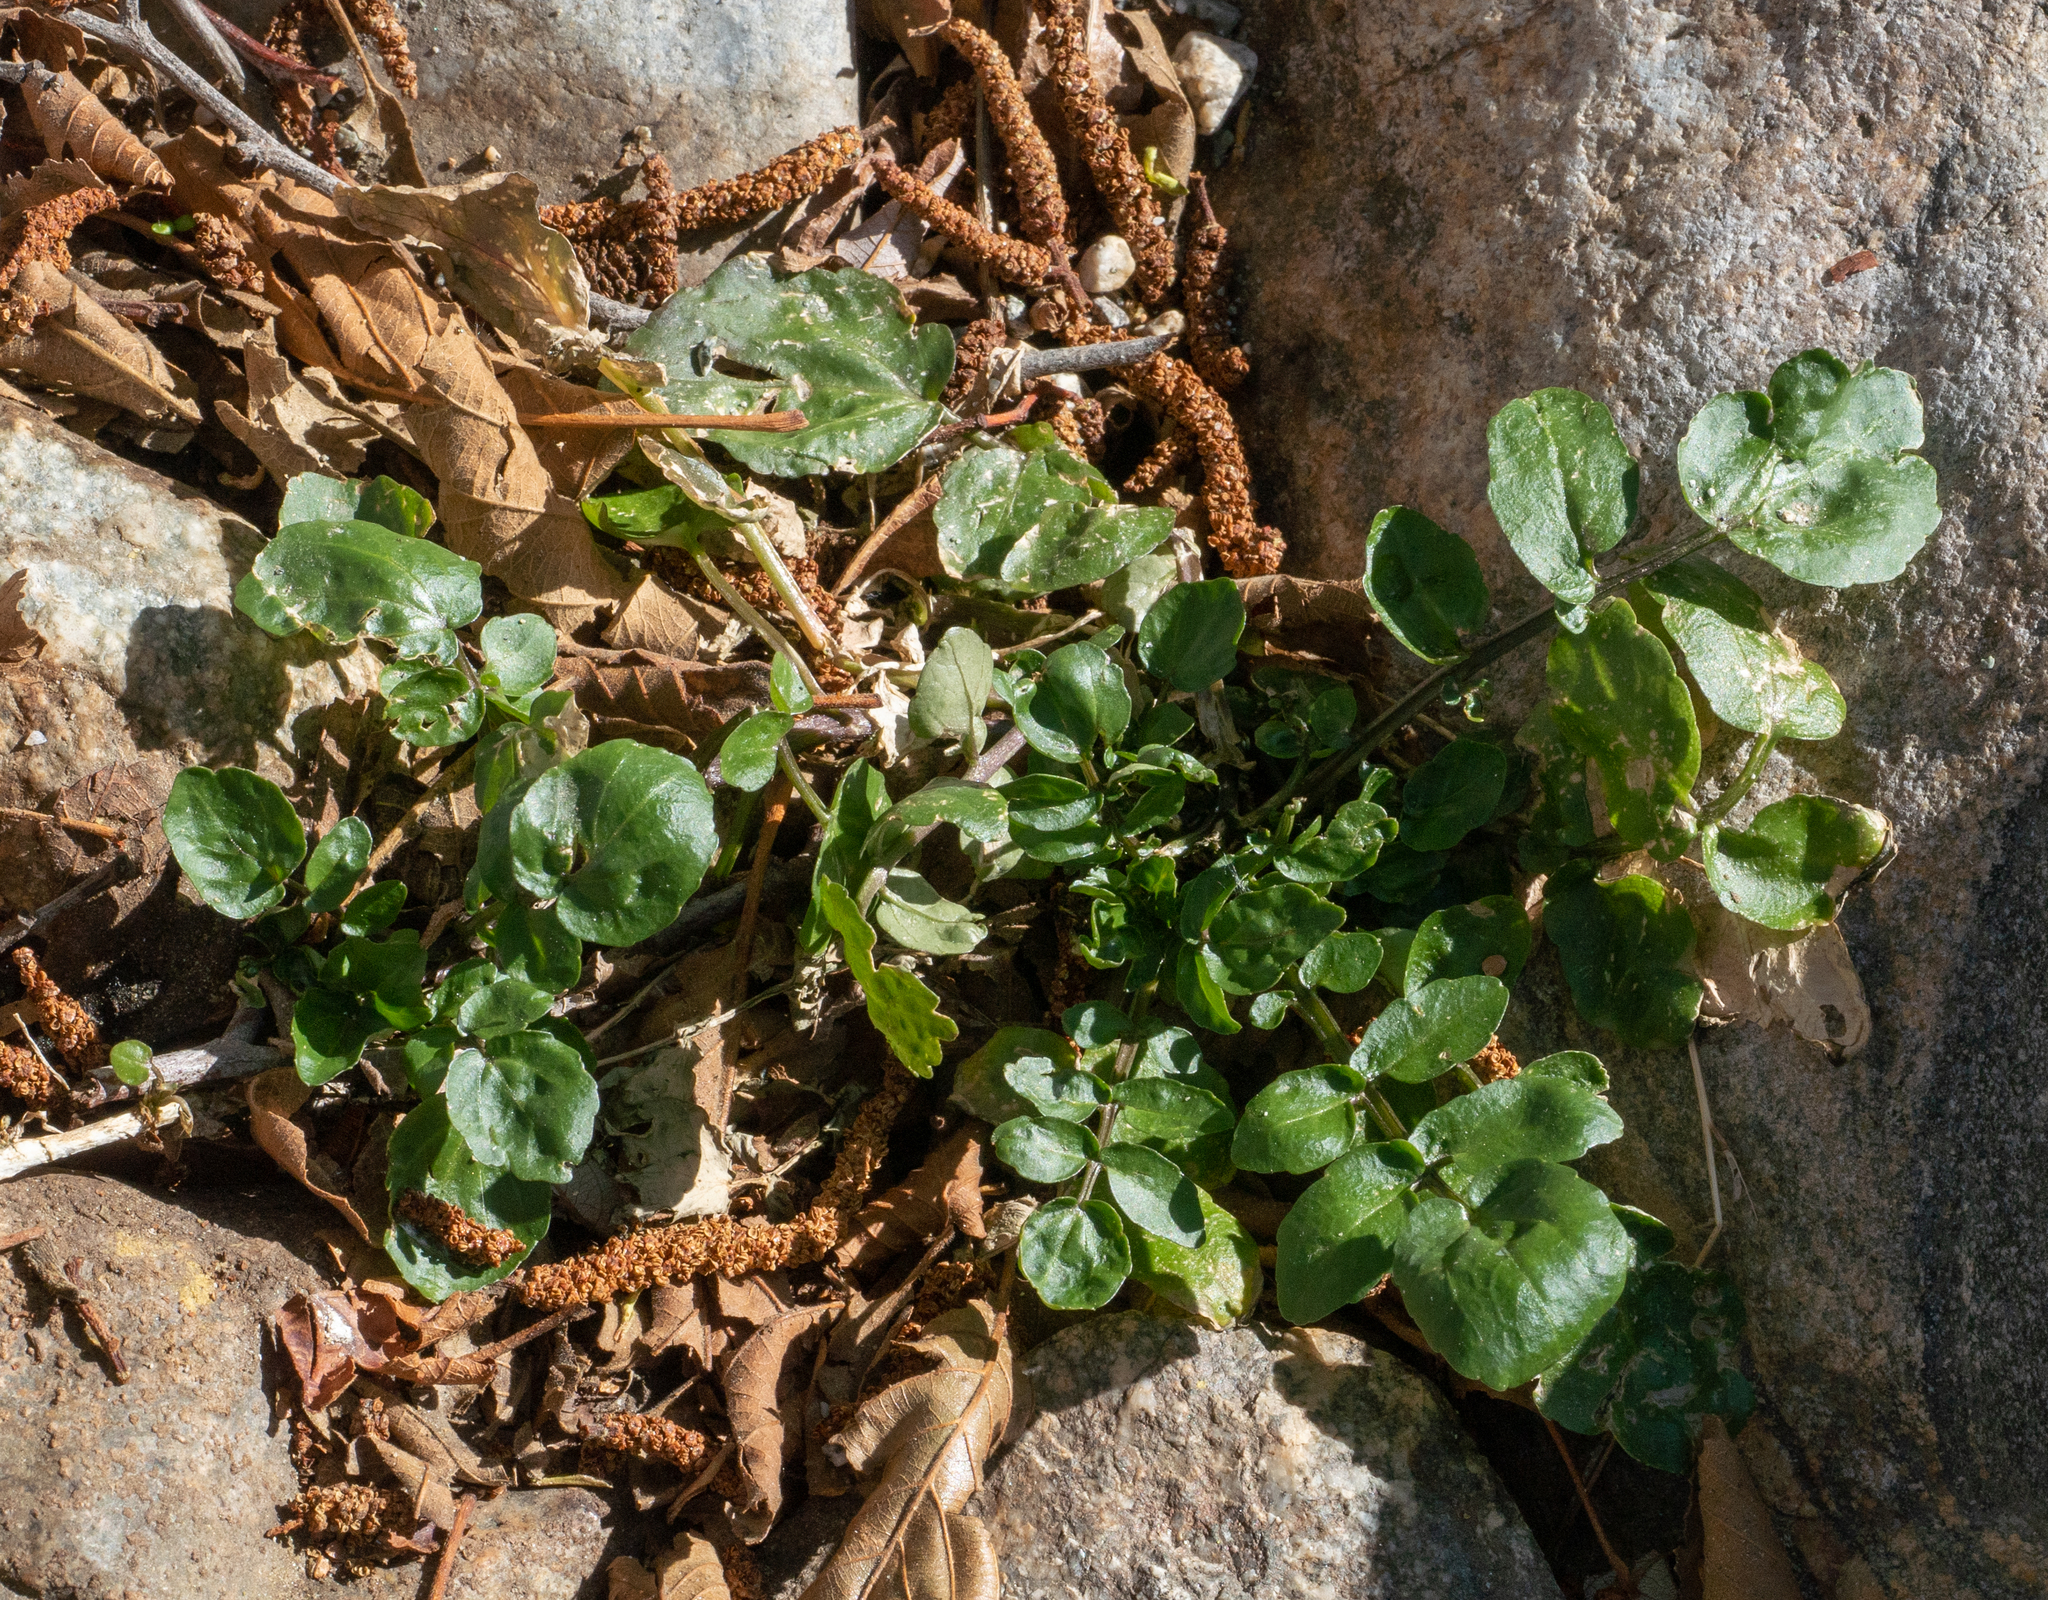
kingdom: Plantae
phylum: Tracheophyta
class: Magnoliopsida
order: Brassicales
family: Brassicaceae
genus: Nasturtium
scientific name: Nasturtium officinale
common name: Watercress
